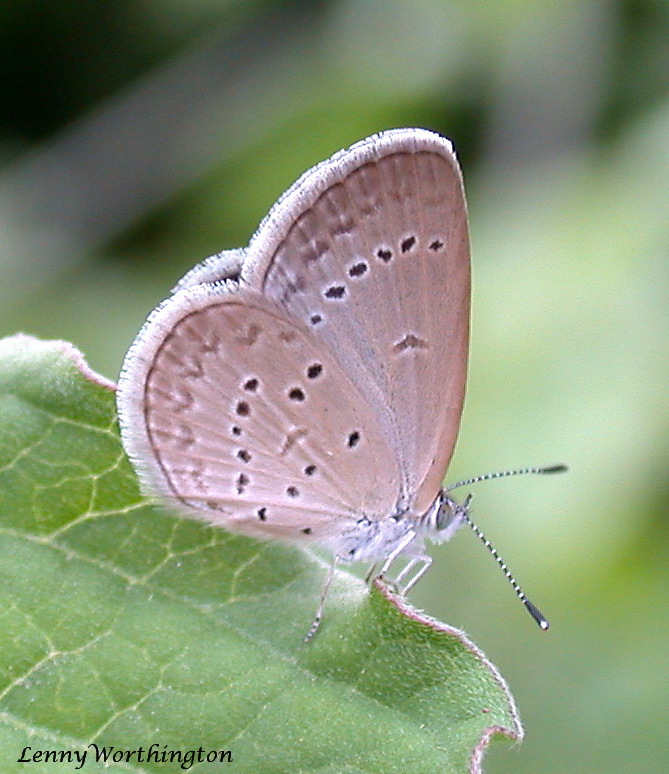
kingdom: Animalia
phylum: Arthropoda
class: Insecta
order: Lepidoptera
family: Lycaenidae
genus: Zizina
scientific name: Zizina otis
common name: Lesser grass blue
